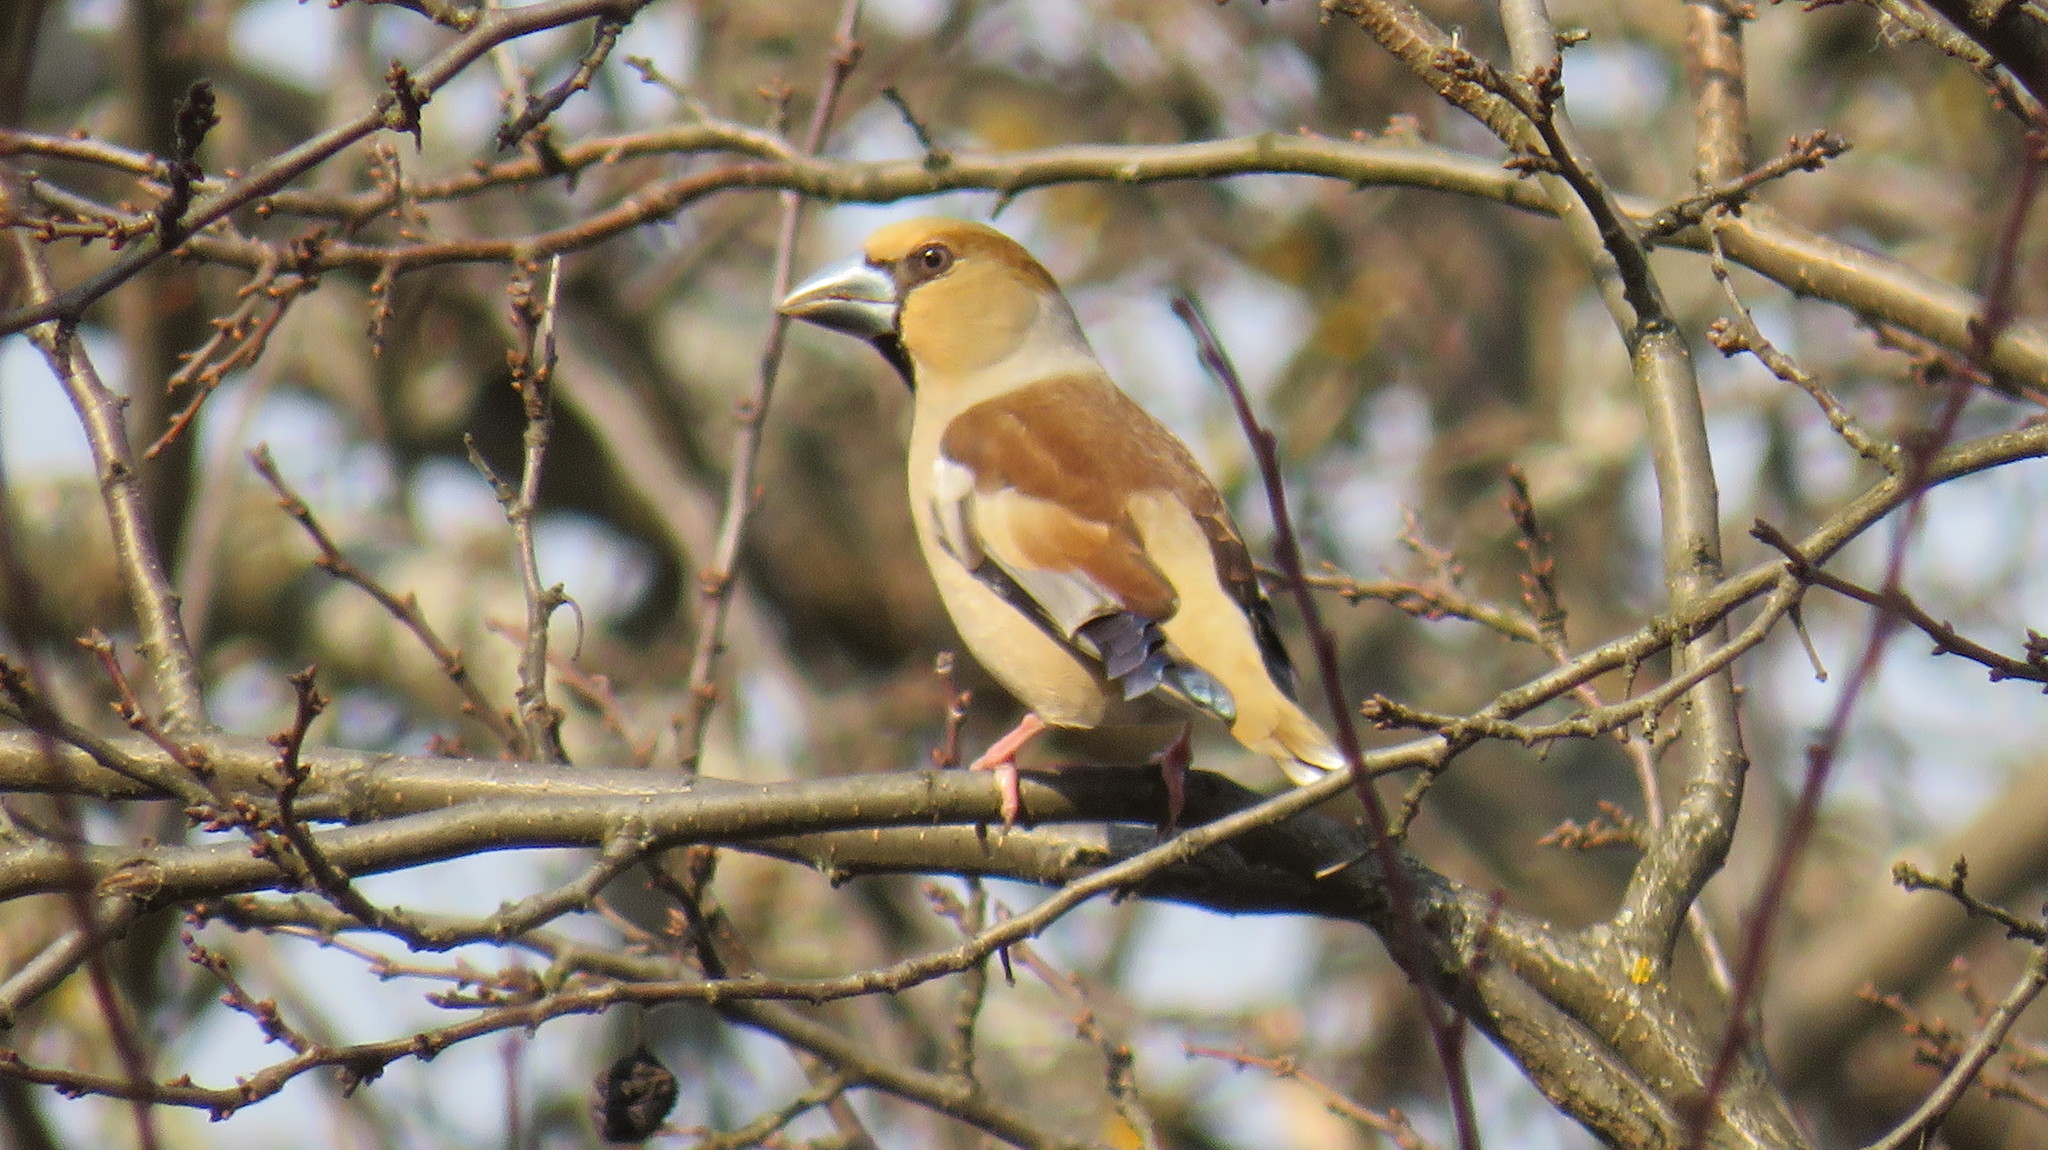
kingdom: Animalia
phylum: Chordata
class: Aves
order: Passeriformes
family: Fringillidae
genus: Coccothraustes
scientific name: Coccothraustes coccothraustes
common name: Hawfinch
